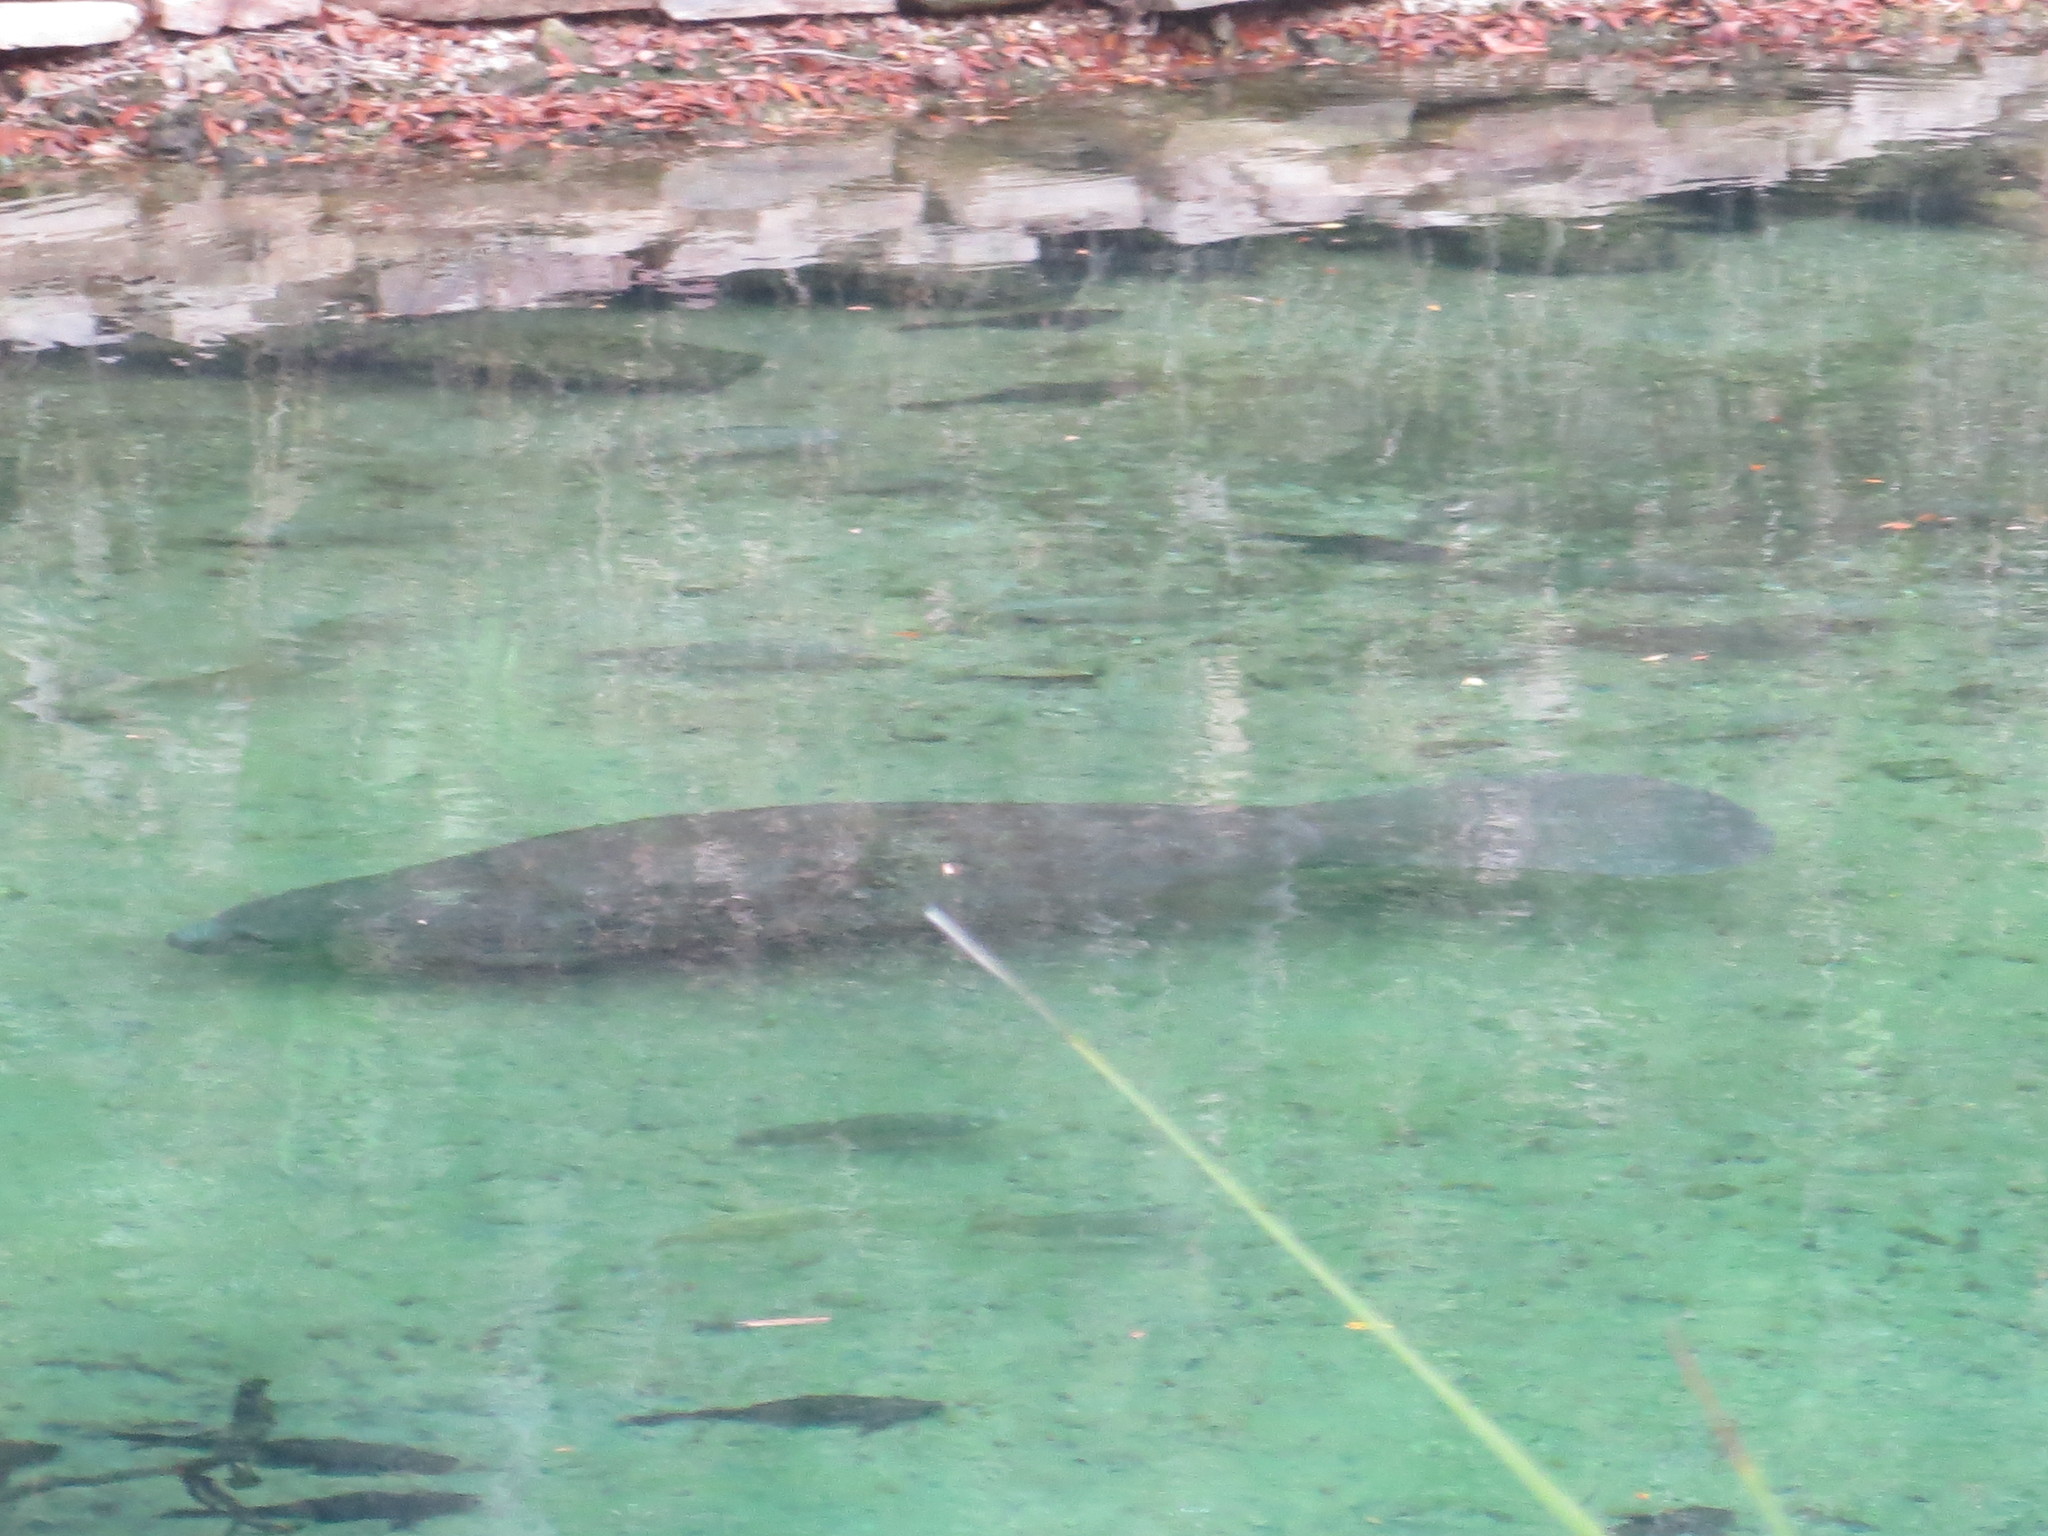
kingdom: Animalia
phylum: Chordata
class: Mammalia
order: Sirenia
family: Trichechidae
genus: Trichechus
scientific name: Trichechus manatus
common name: West indian manatee
